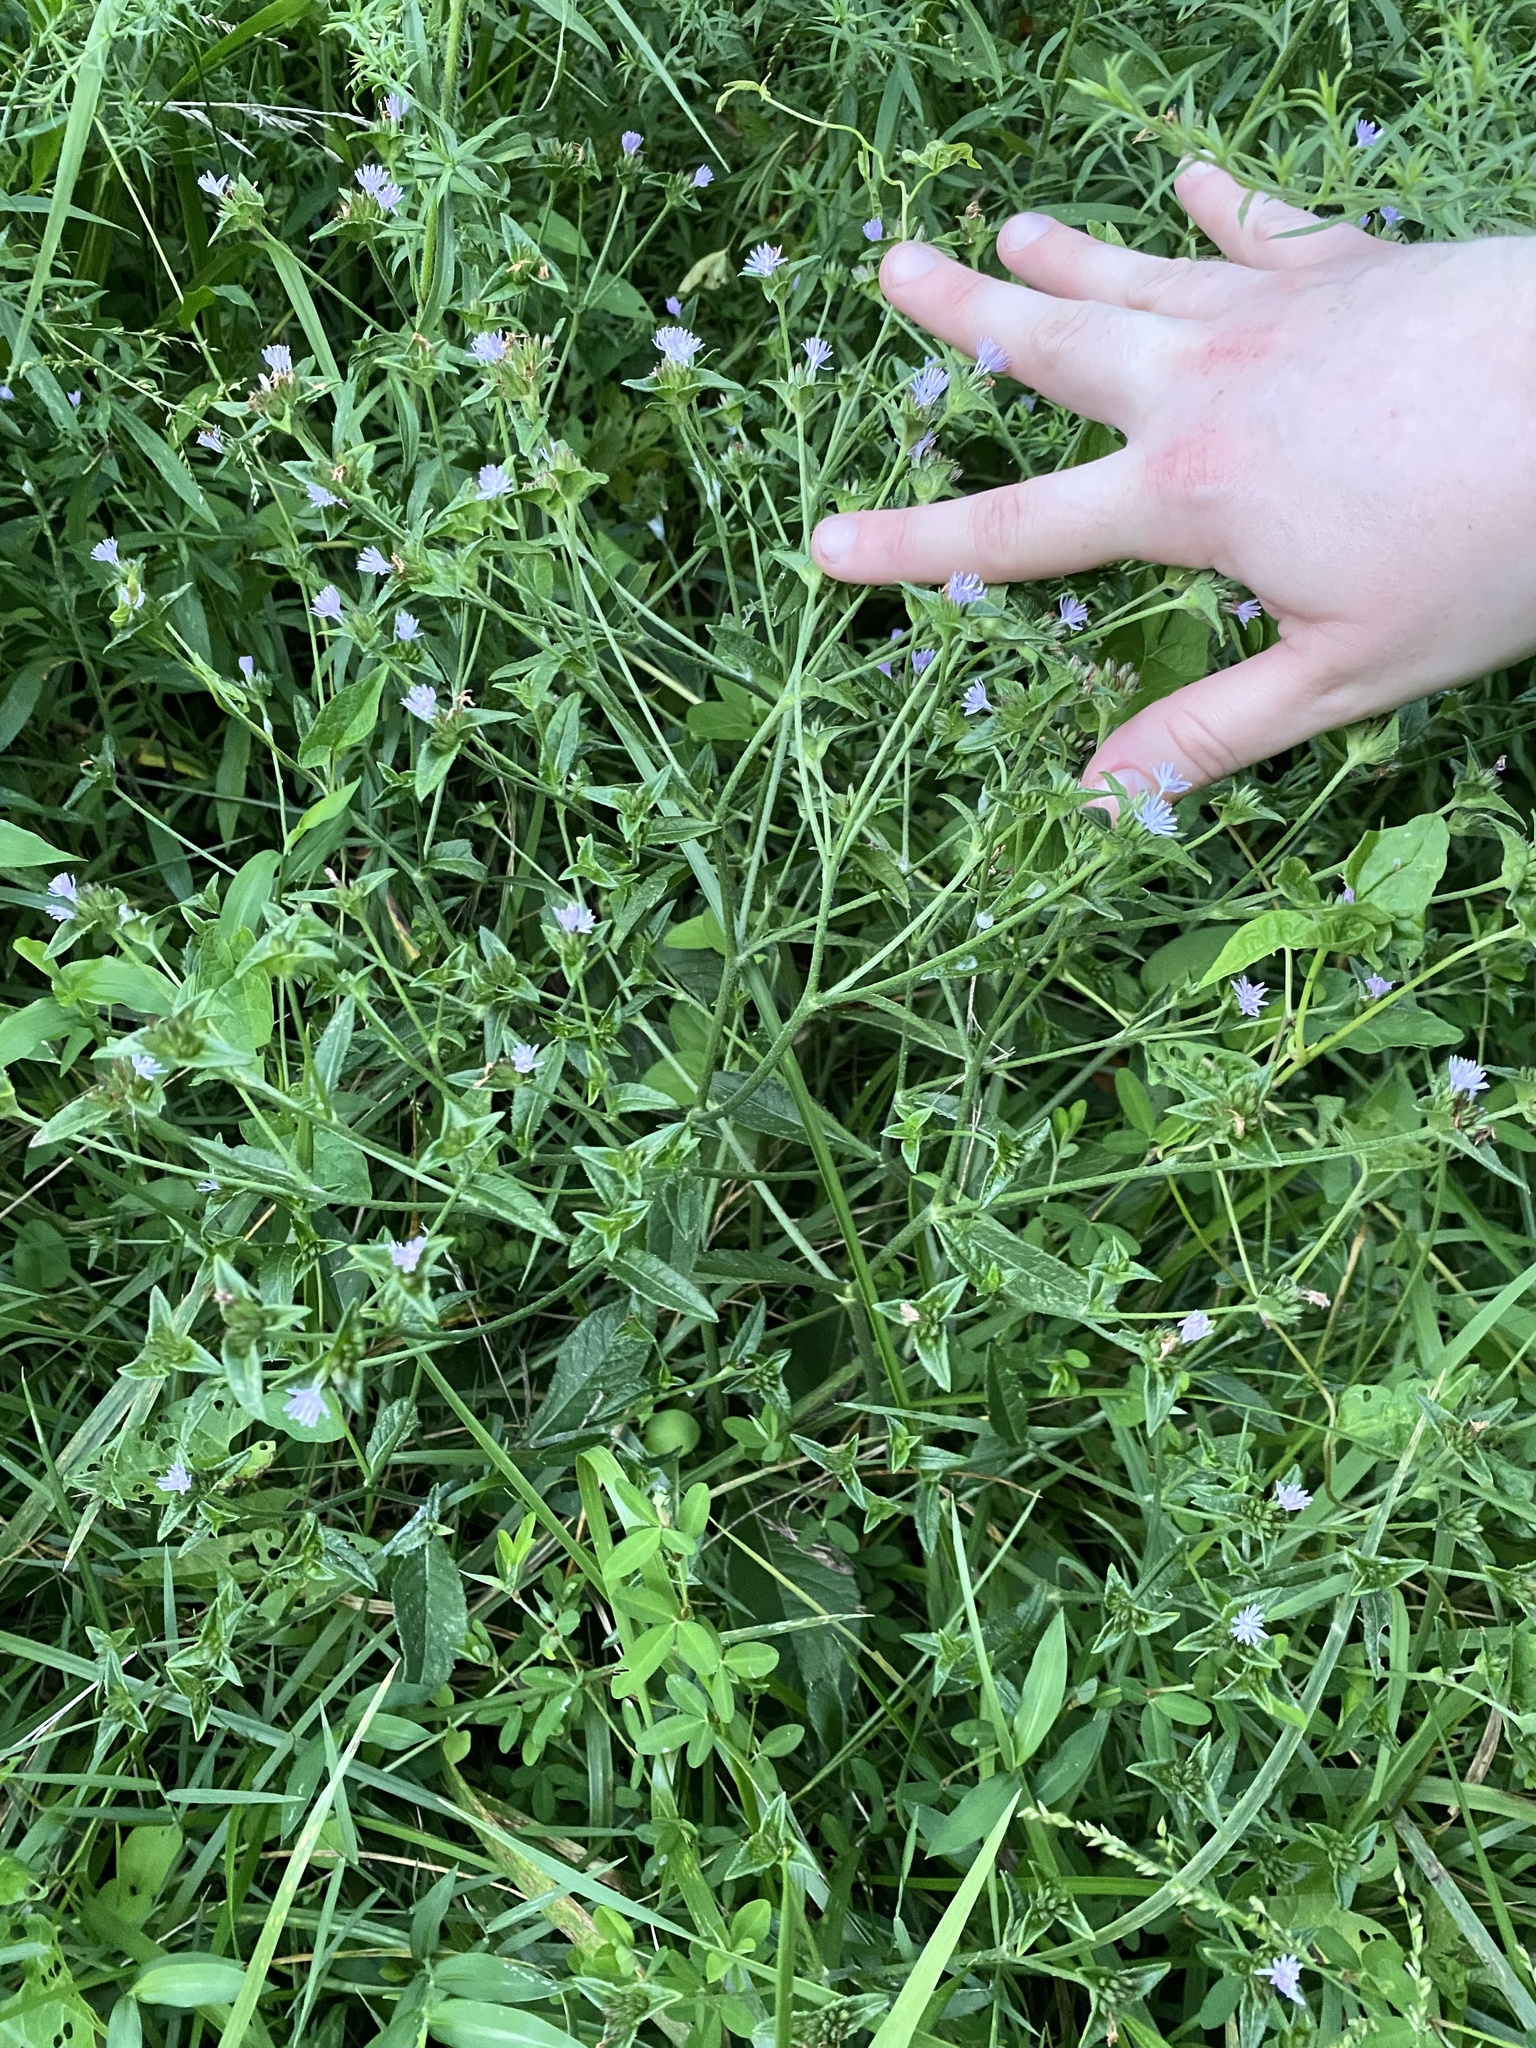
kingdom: Plantae
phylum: Tracheophyta
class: Magnoliopsida
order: Asterales
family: Asteraceae
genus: Elephantopus
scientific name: Elephantopus carolinianus
